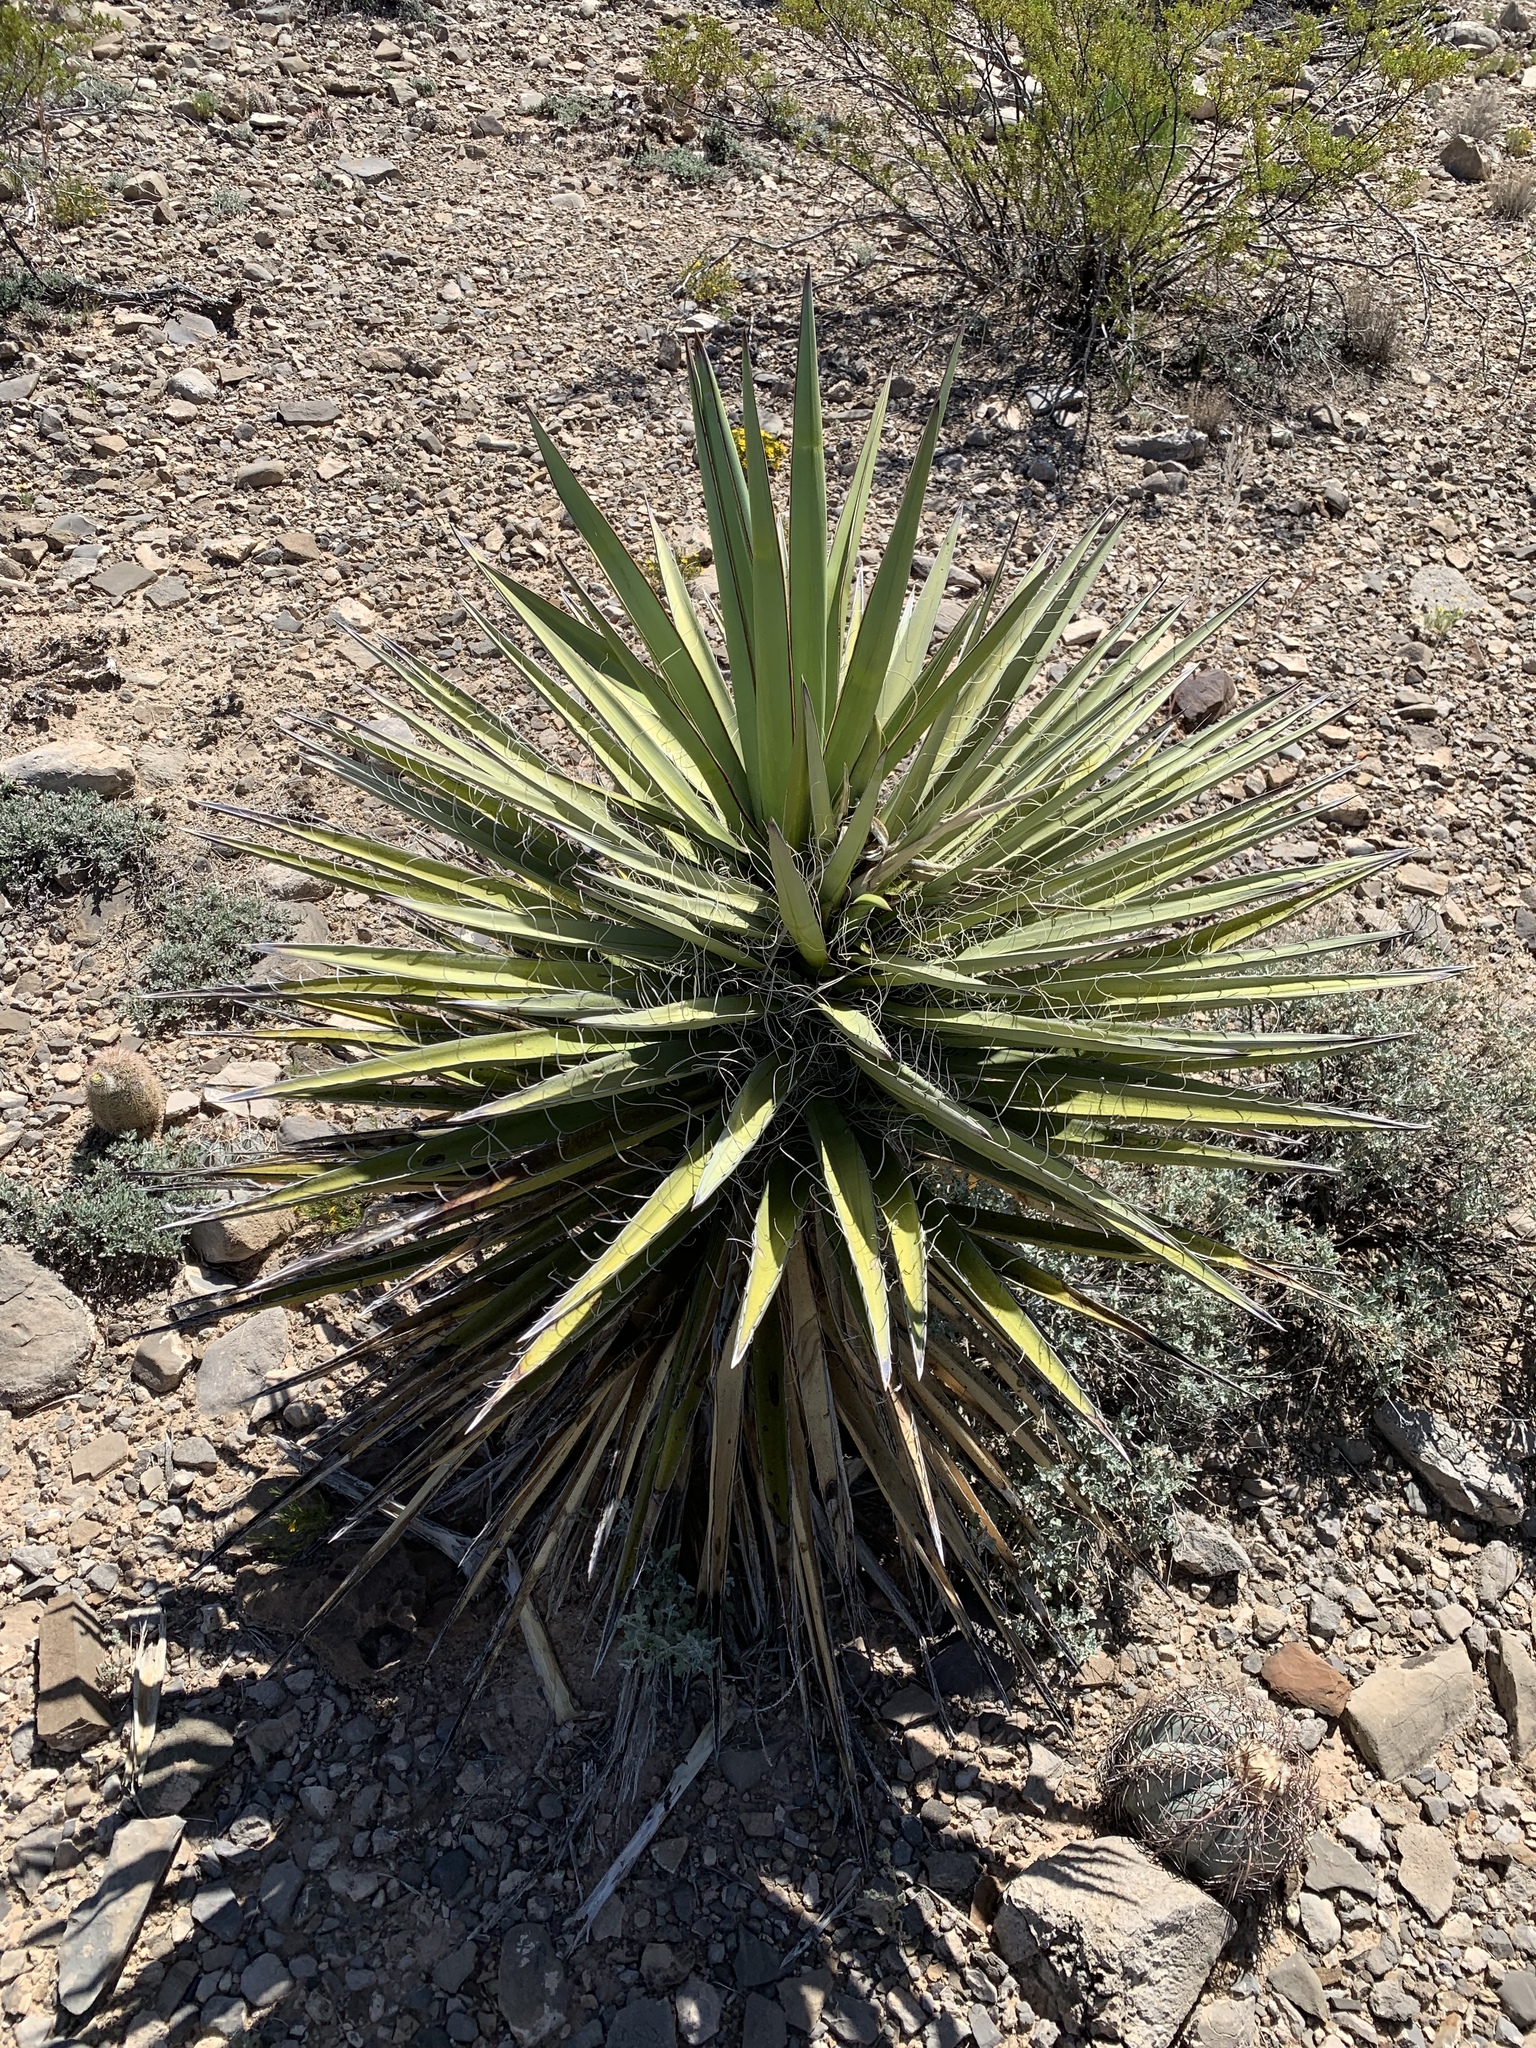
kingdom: Plantae
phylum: Tracheophyta
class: Liliopsida
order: Asparagales
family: Asparagaceae
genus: Yucca
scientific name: Yucca baccata
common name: Banana yucca
